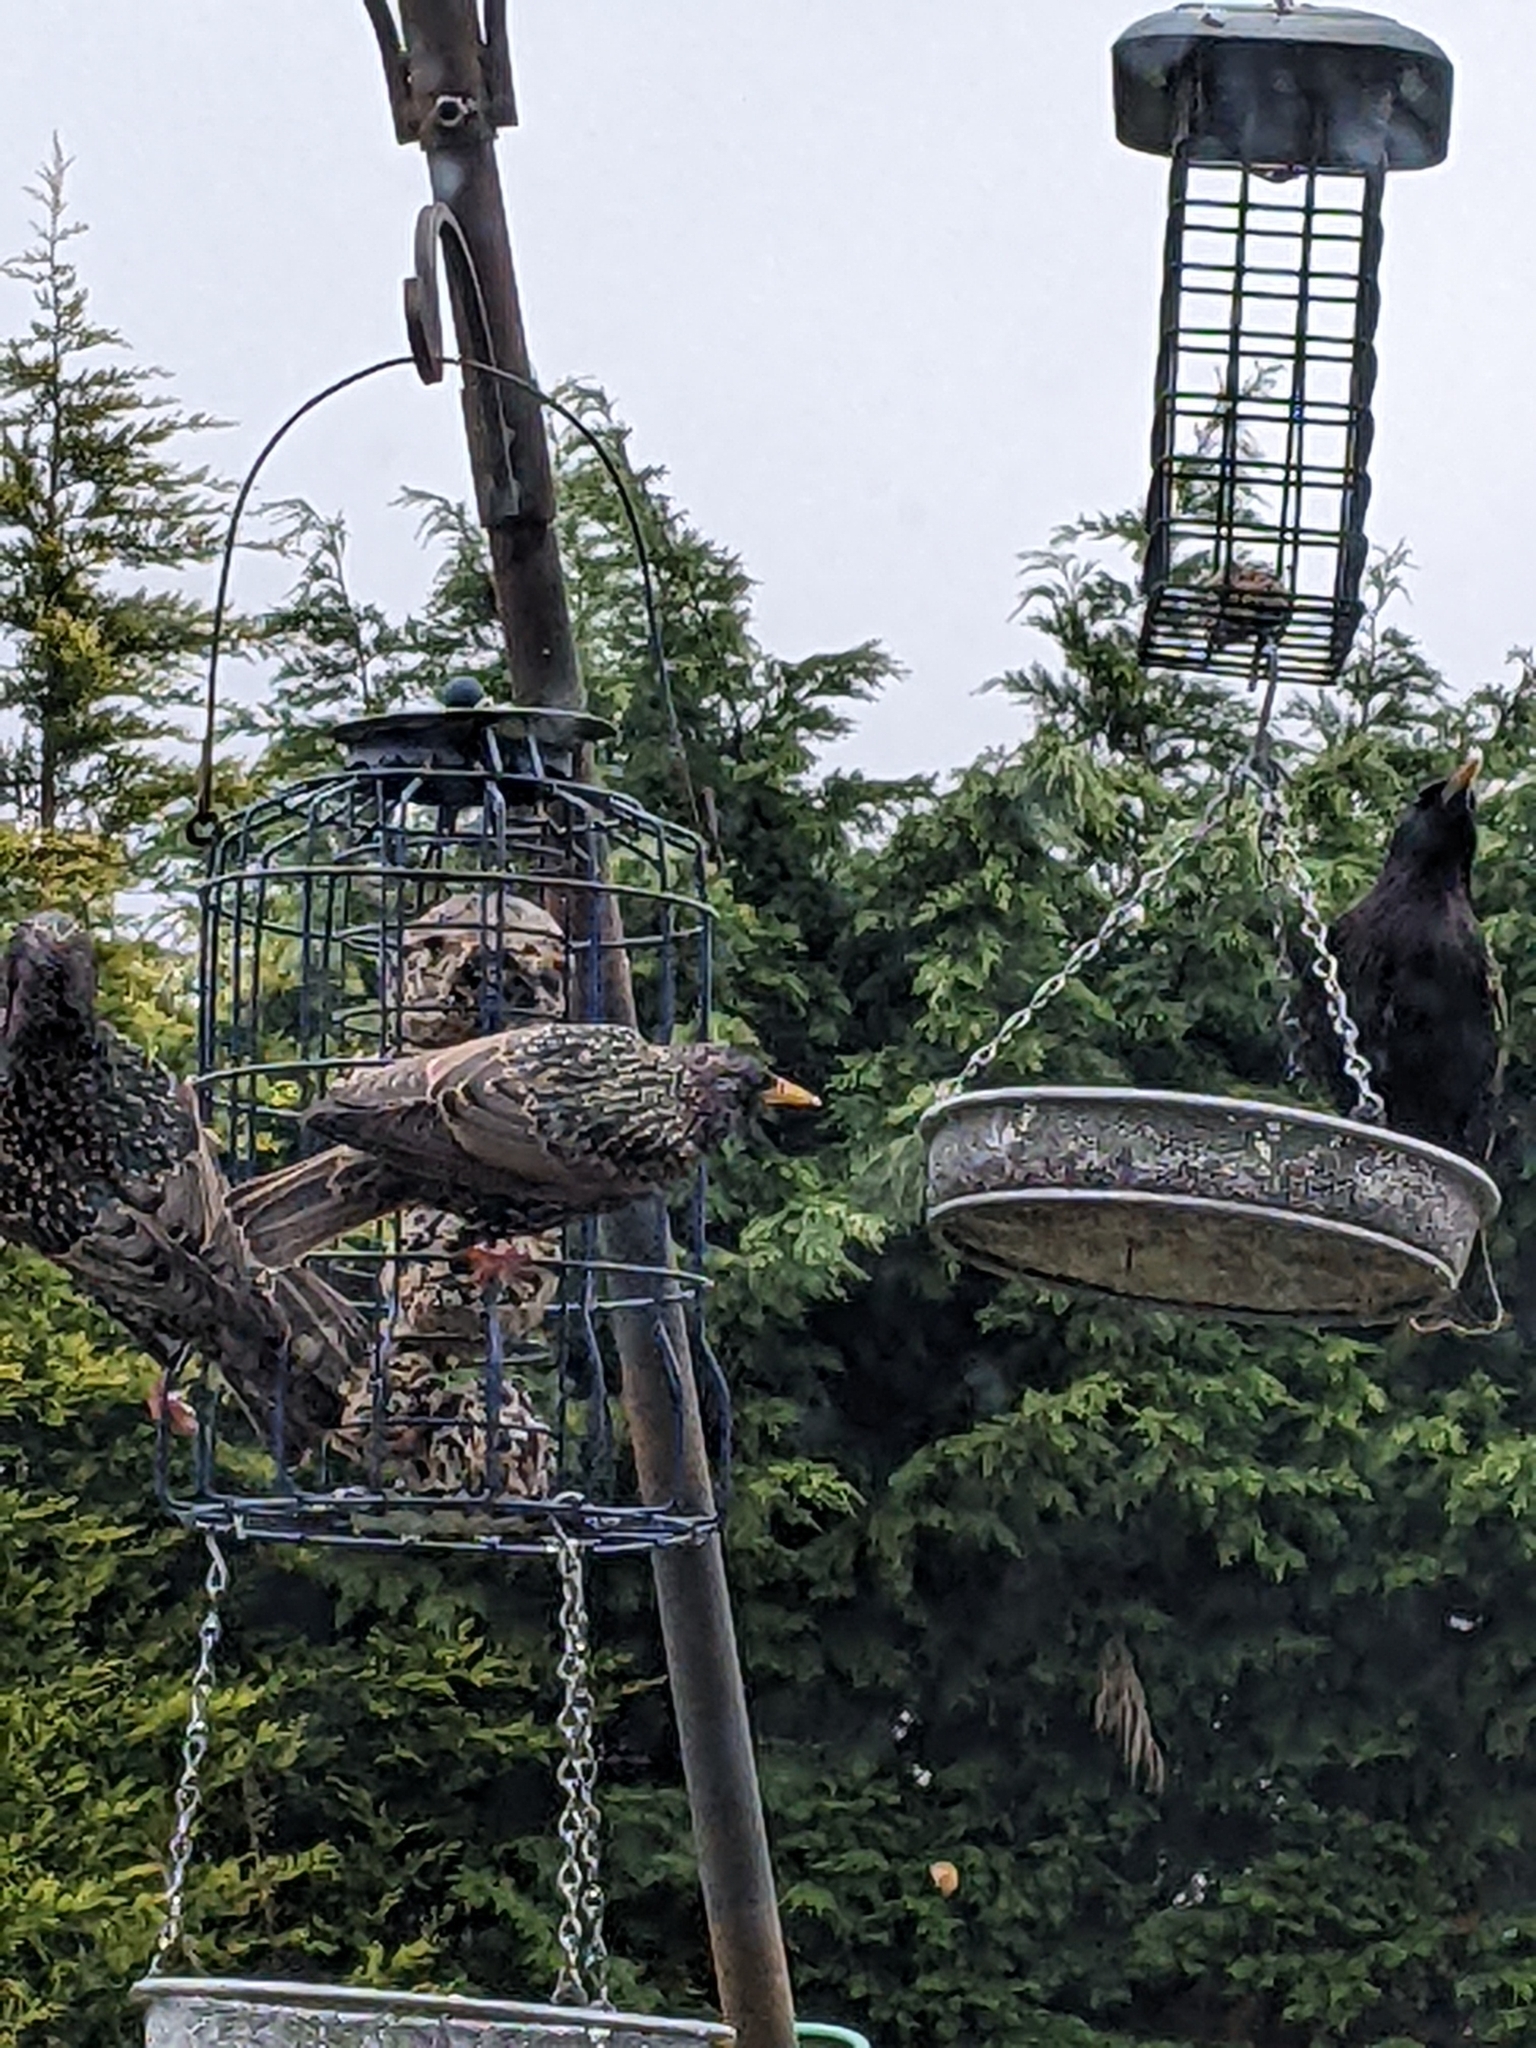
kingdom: Animalia
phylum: Chordata
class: Aves
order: Passeriformes
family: Sturnidae
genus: Sturnus
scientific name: Sturnus vulgaris
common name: Common starling
